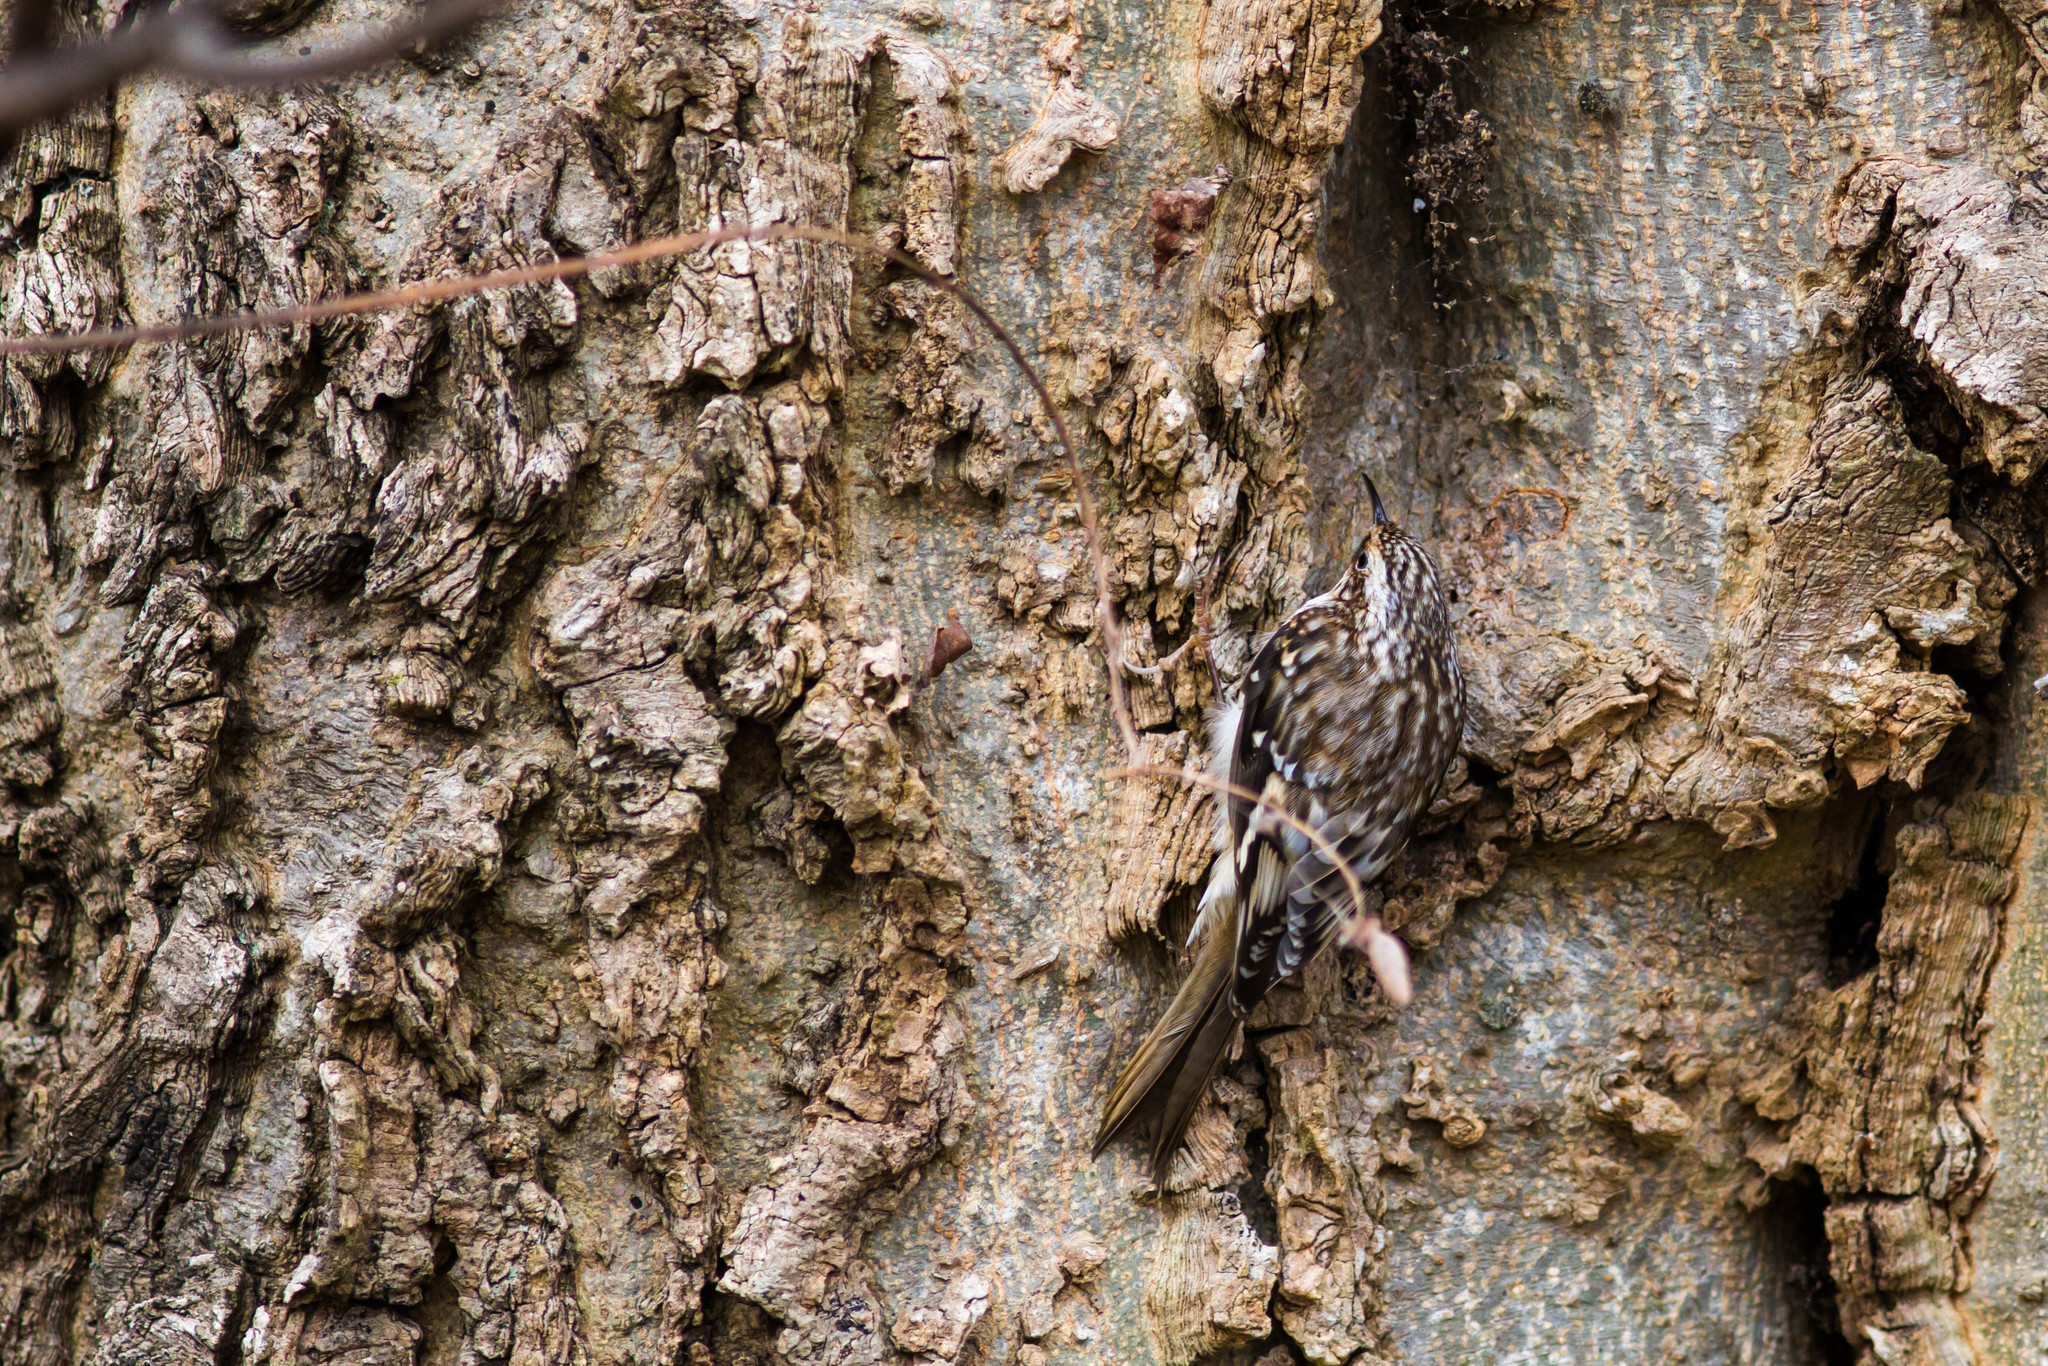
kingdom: Animalia
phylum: Chordata
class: Aves
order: Passeriformes
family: Certhiidae
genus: Certhia
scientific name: Certhia americana
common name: Brown creeper
